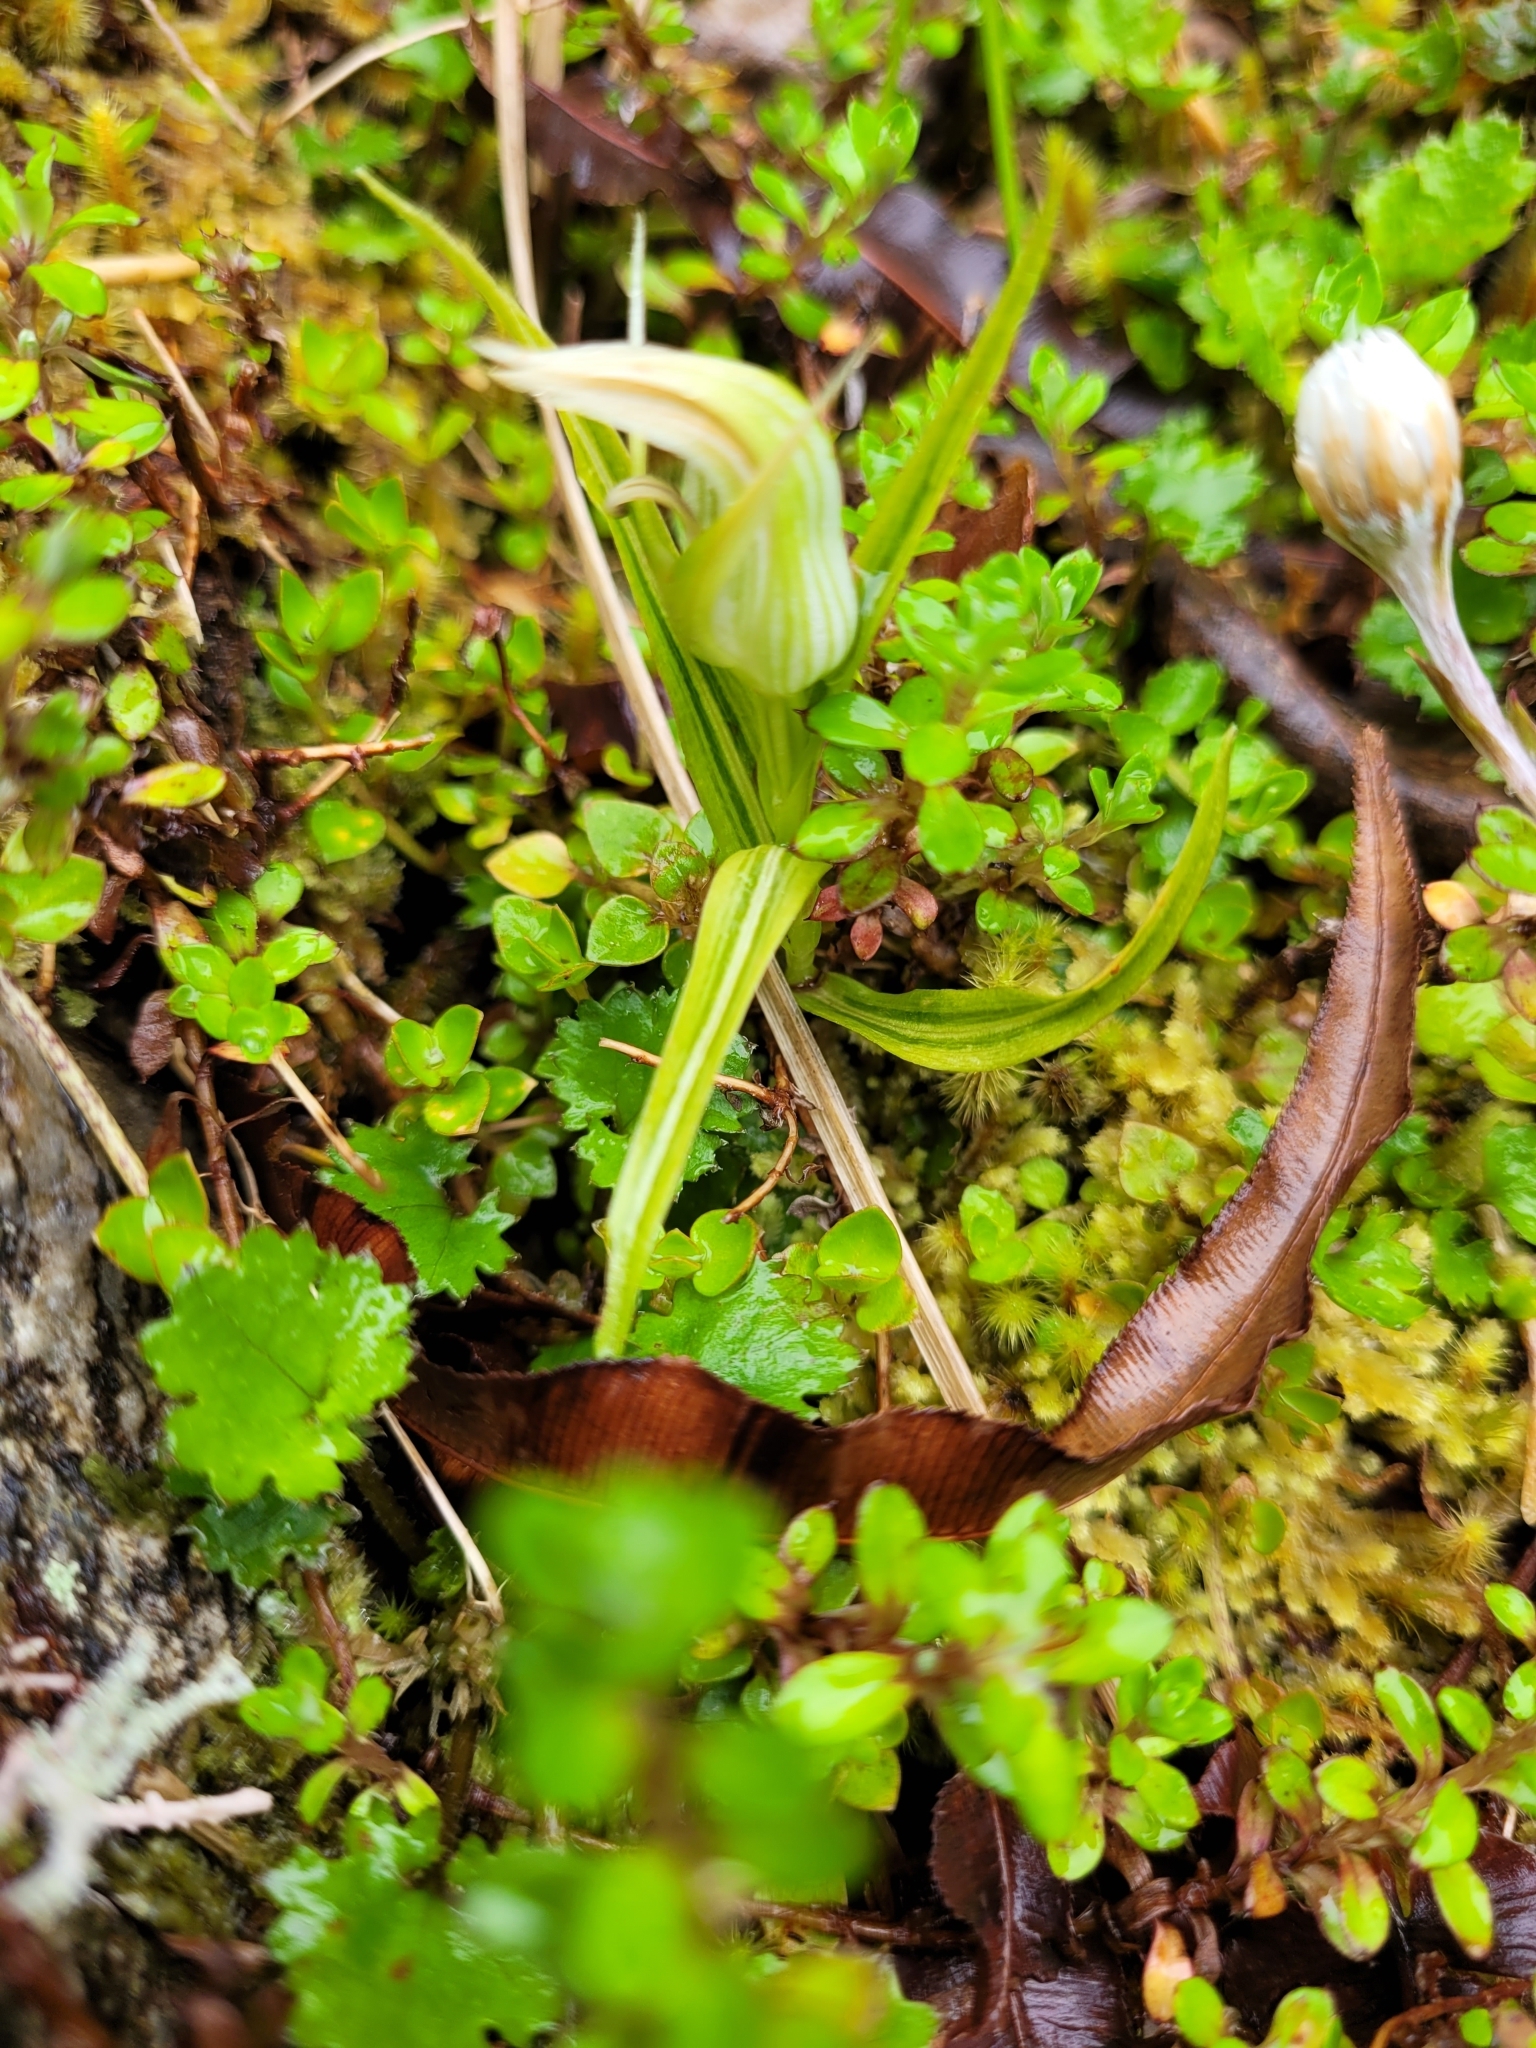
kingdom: Plantae
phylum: Tracheophyta
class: Liliopsida
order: Asparagales
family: Orchidaceae
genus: Pterostylis
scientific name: Pterostylis irsoniana
